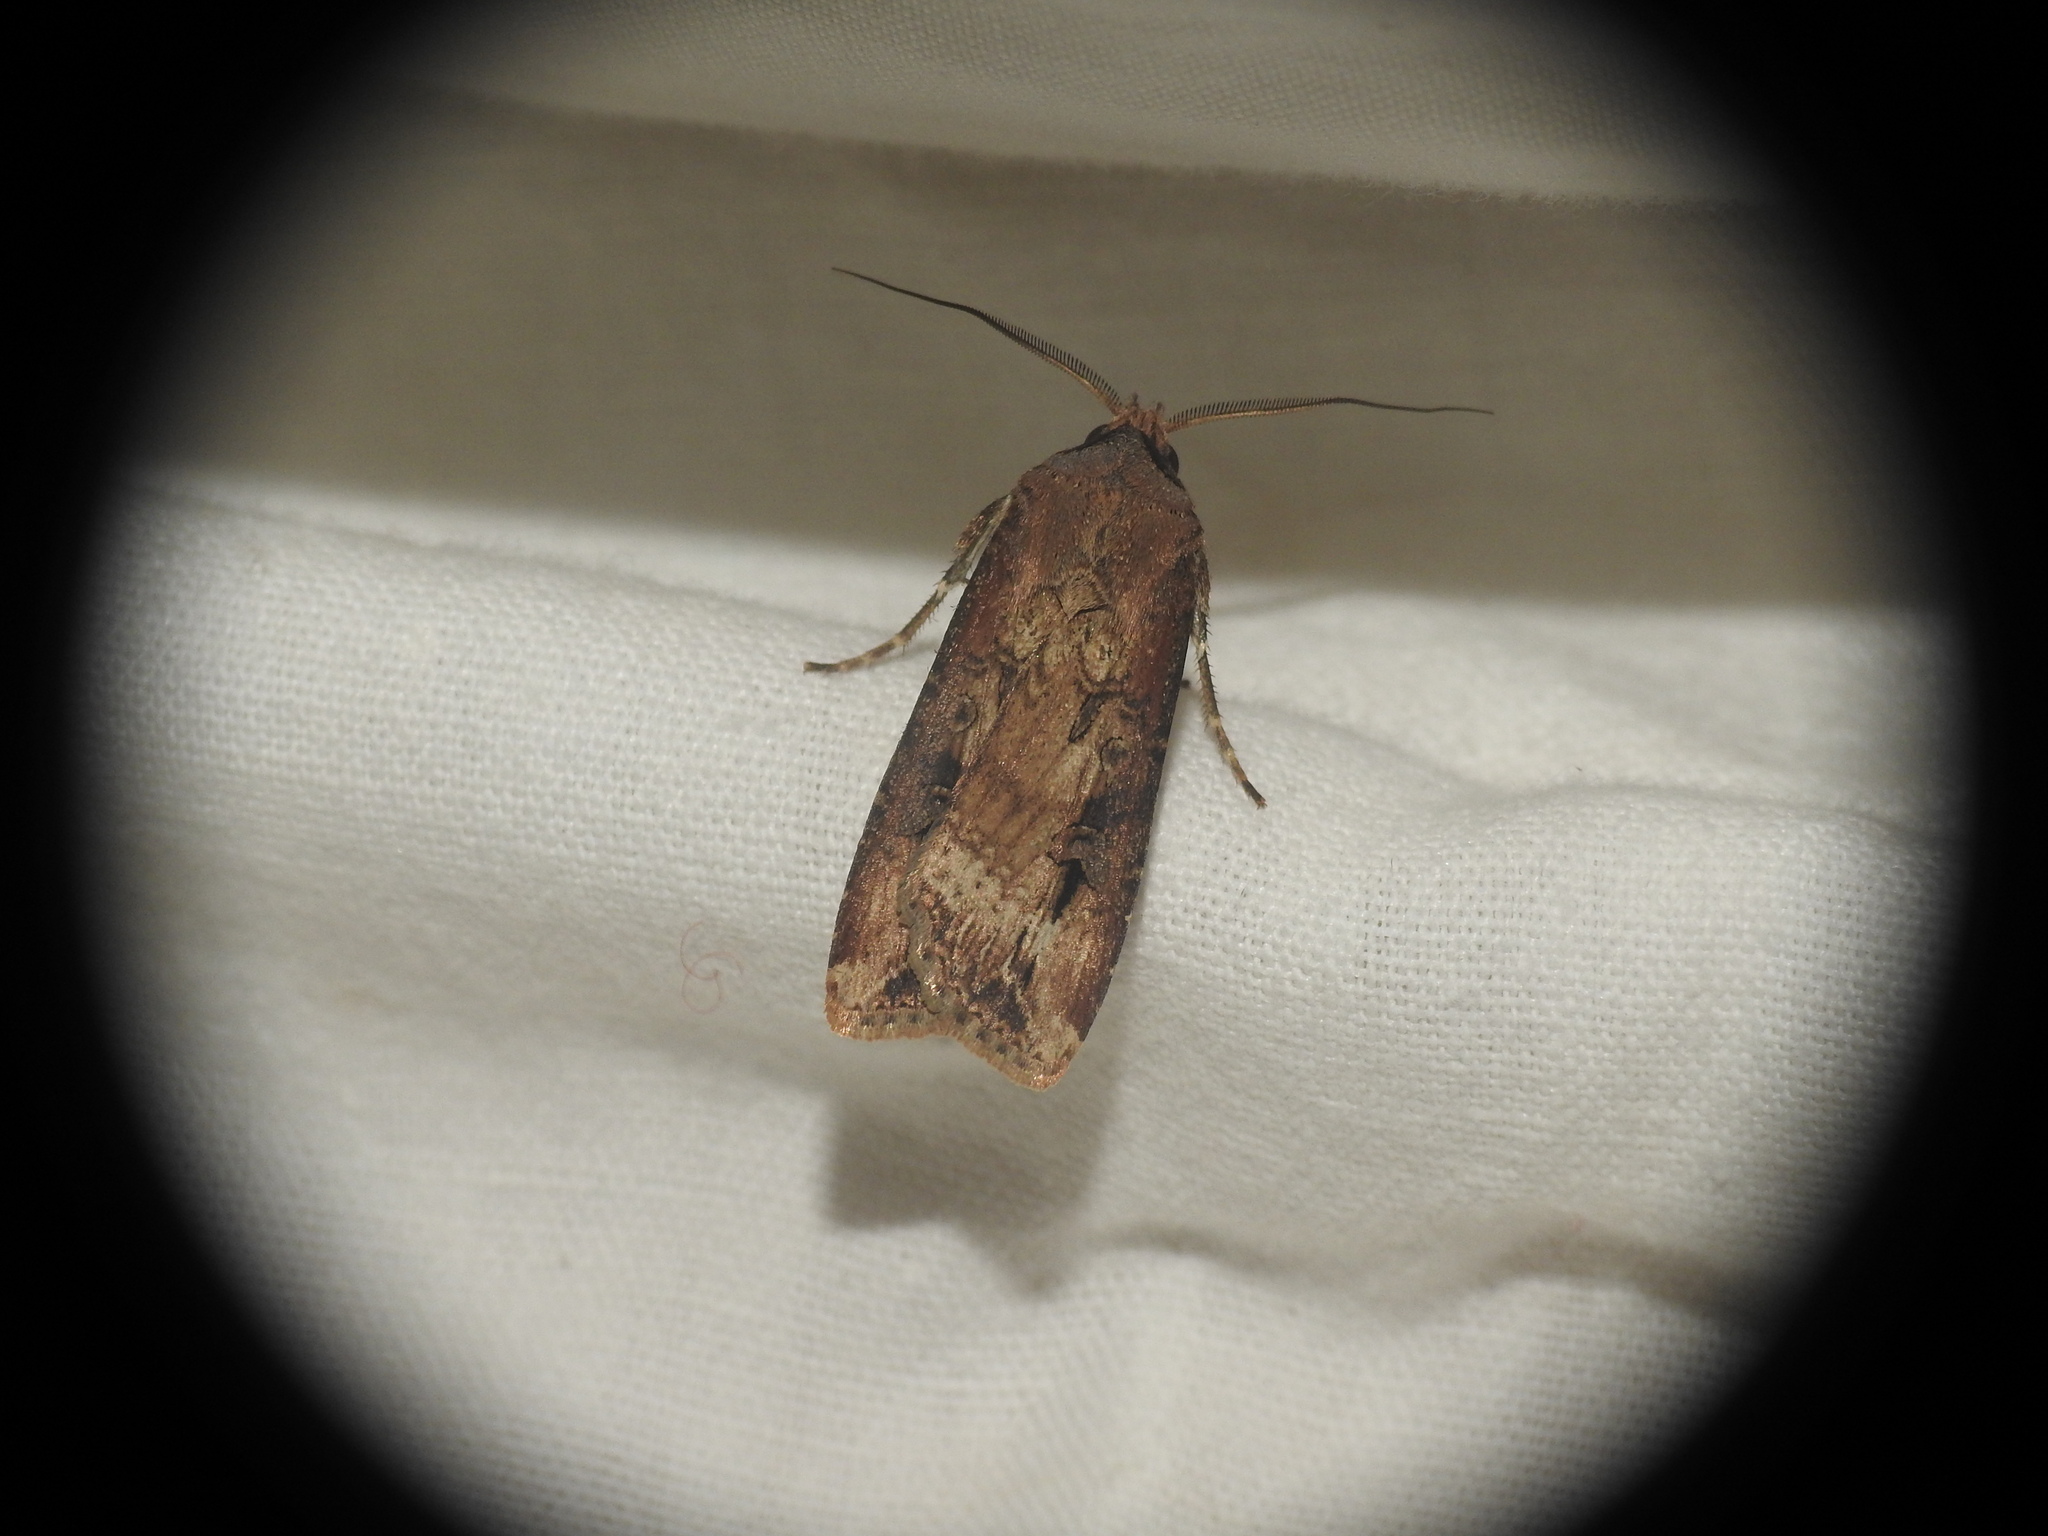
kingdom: Animalia
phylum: Arthropoda
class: Insecta
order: Lepidoptera
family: Noctuidae
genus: Agrotis
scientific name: Agrotis ipsilon
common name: Dark sword-grass
